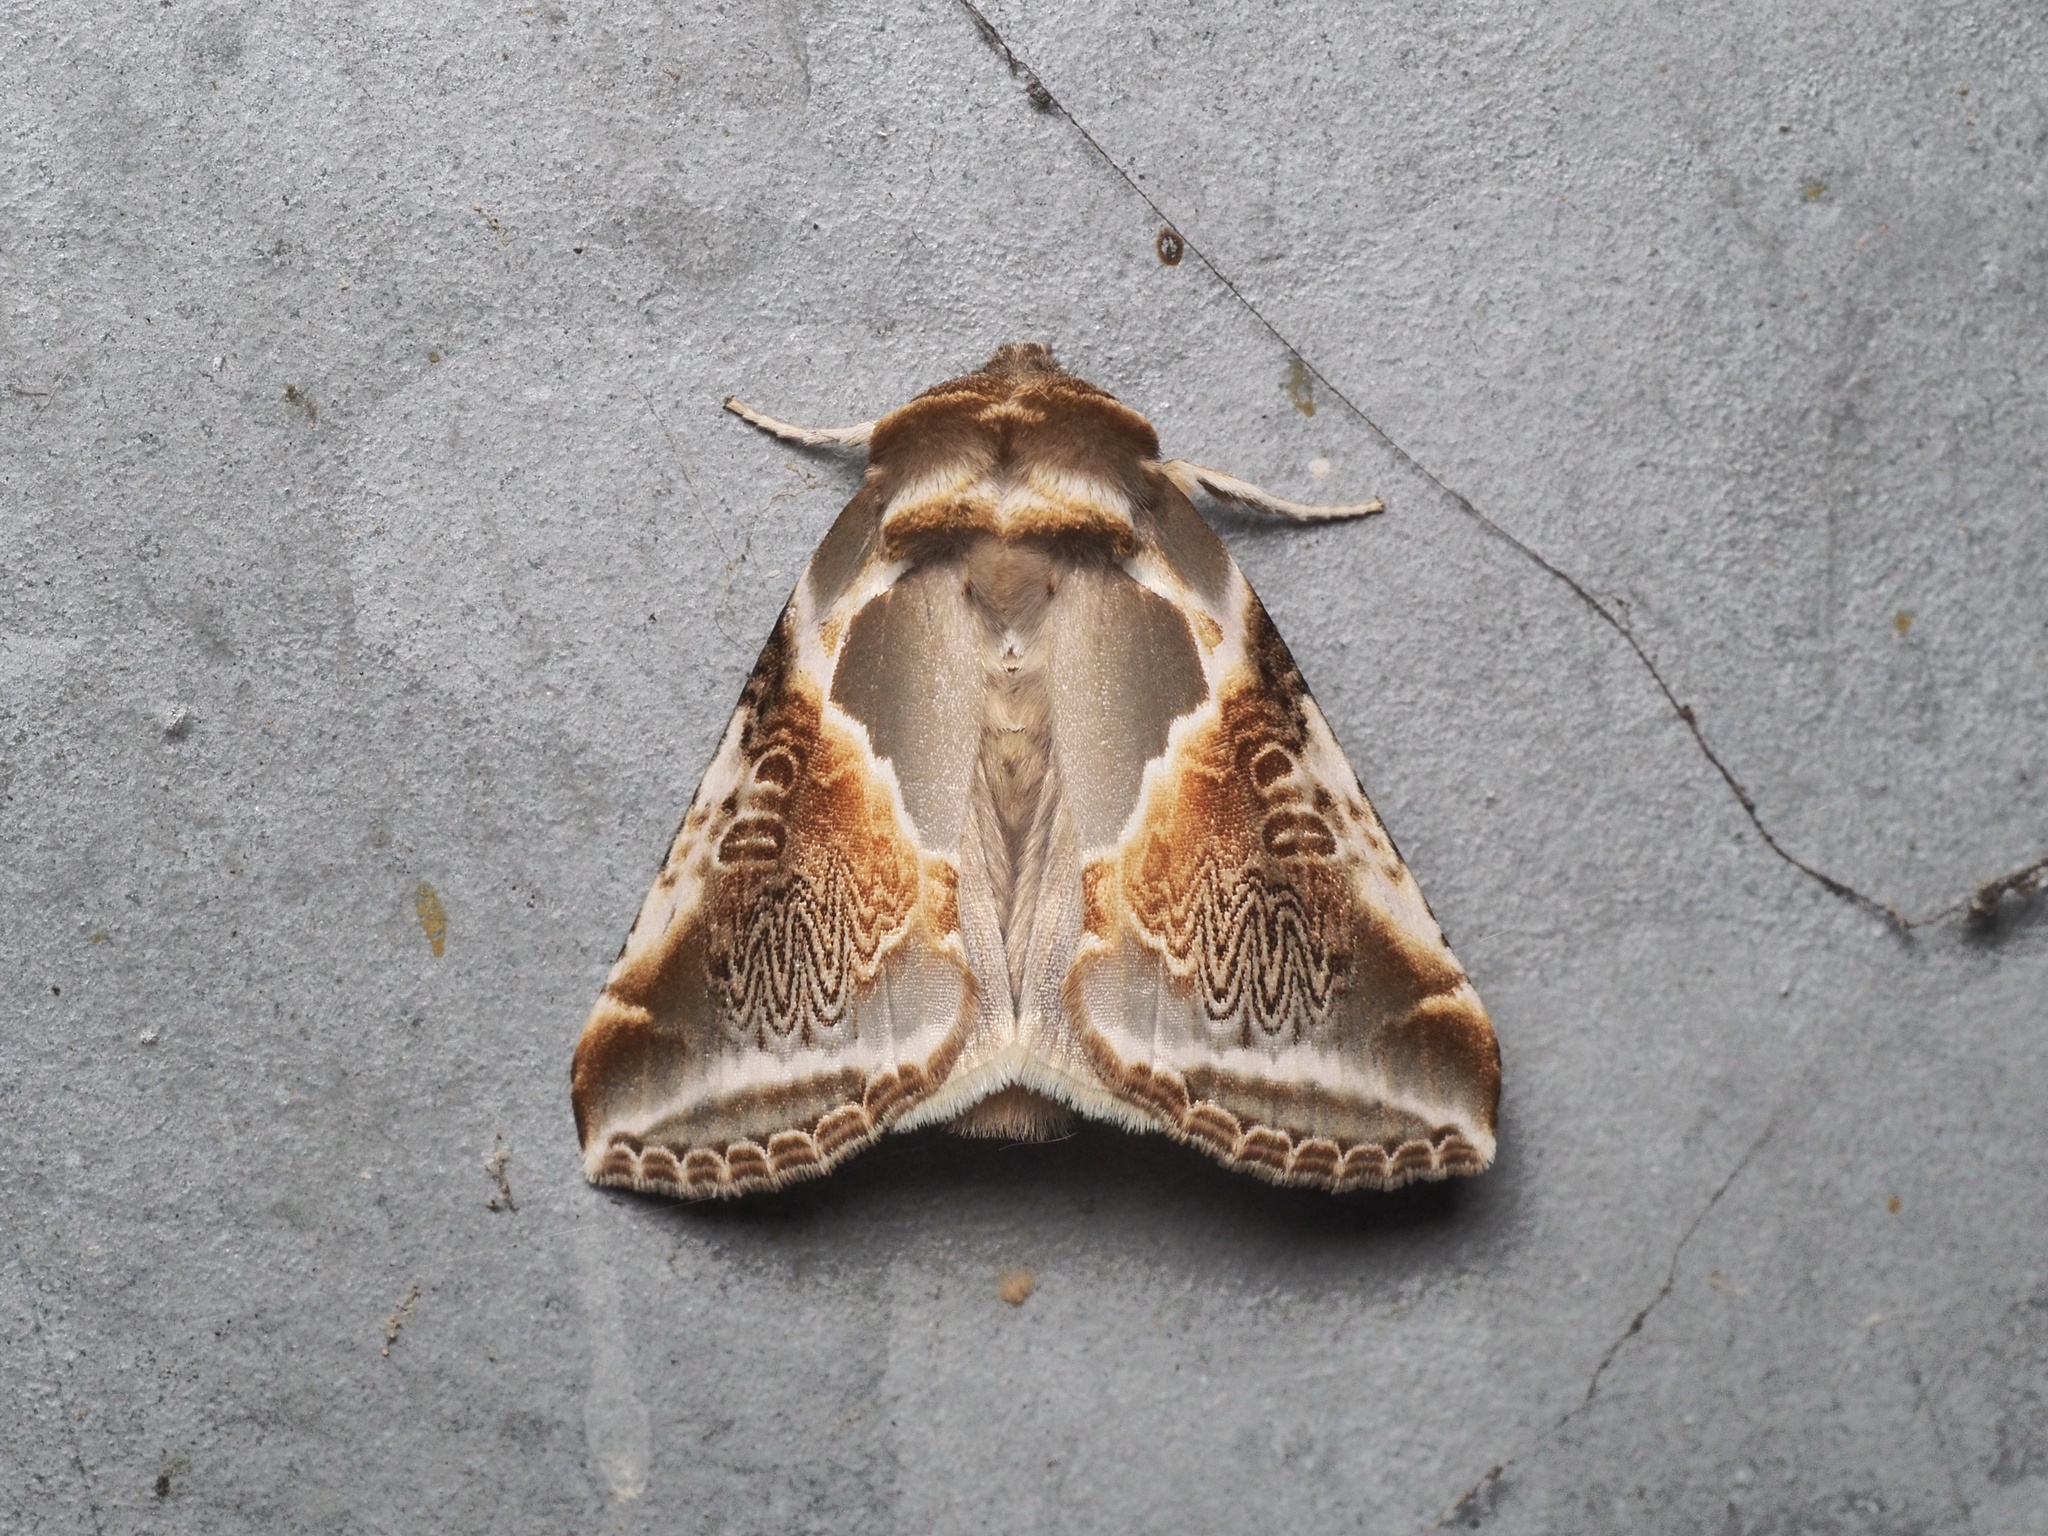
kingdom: Animalia
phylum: Arthropoda
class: Insecta
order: Lepidoptera
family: Drepanidae
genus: Habrosyne
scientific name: Habrosyne pyritoides
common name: Buff arches
